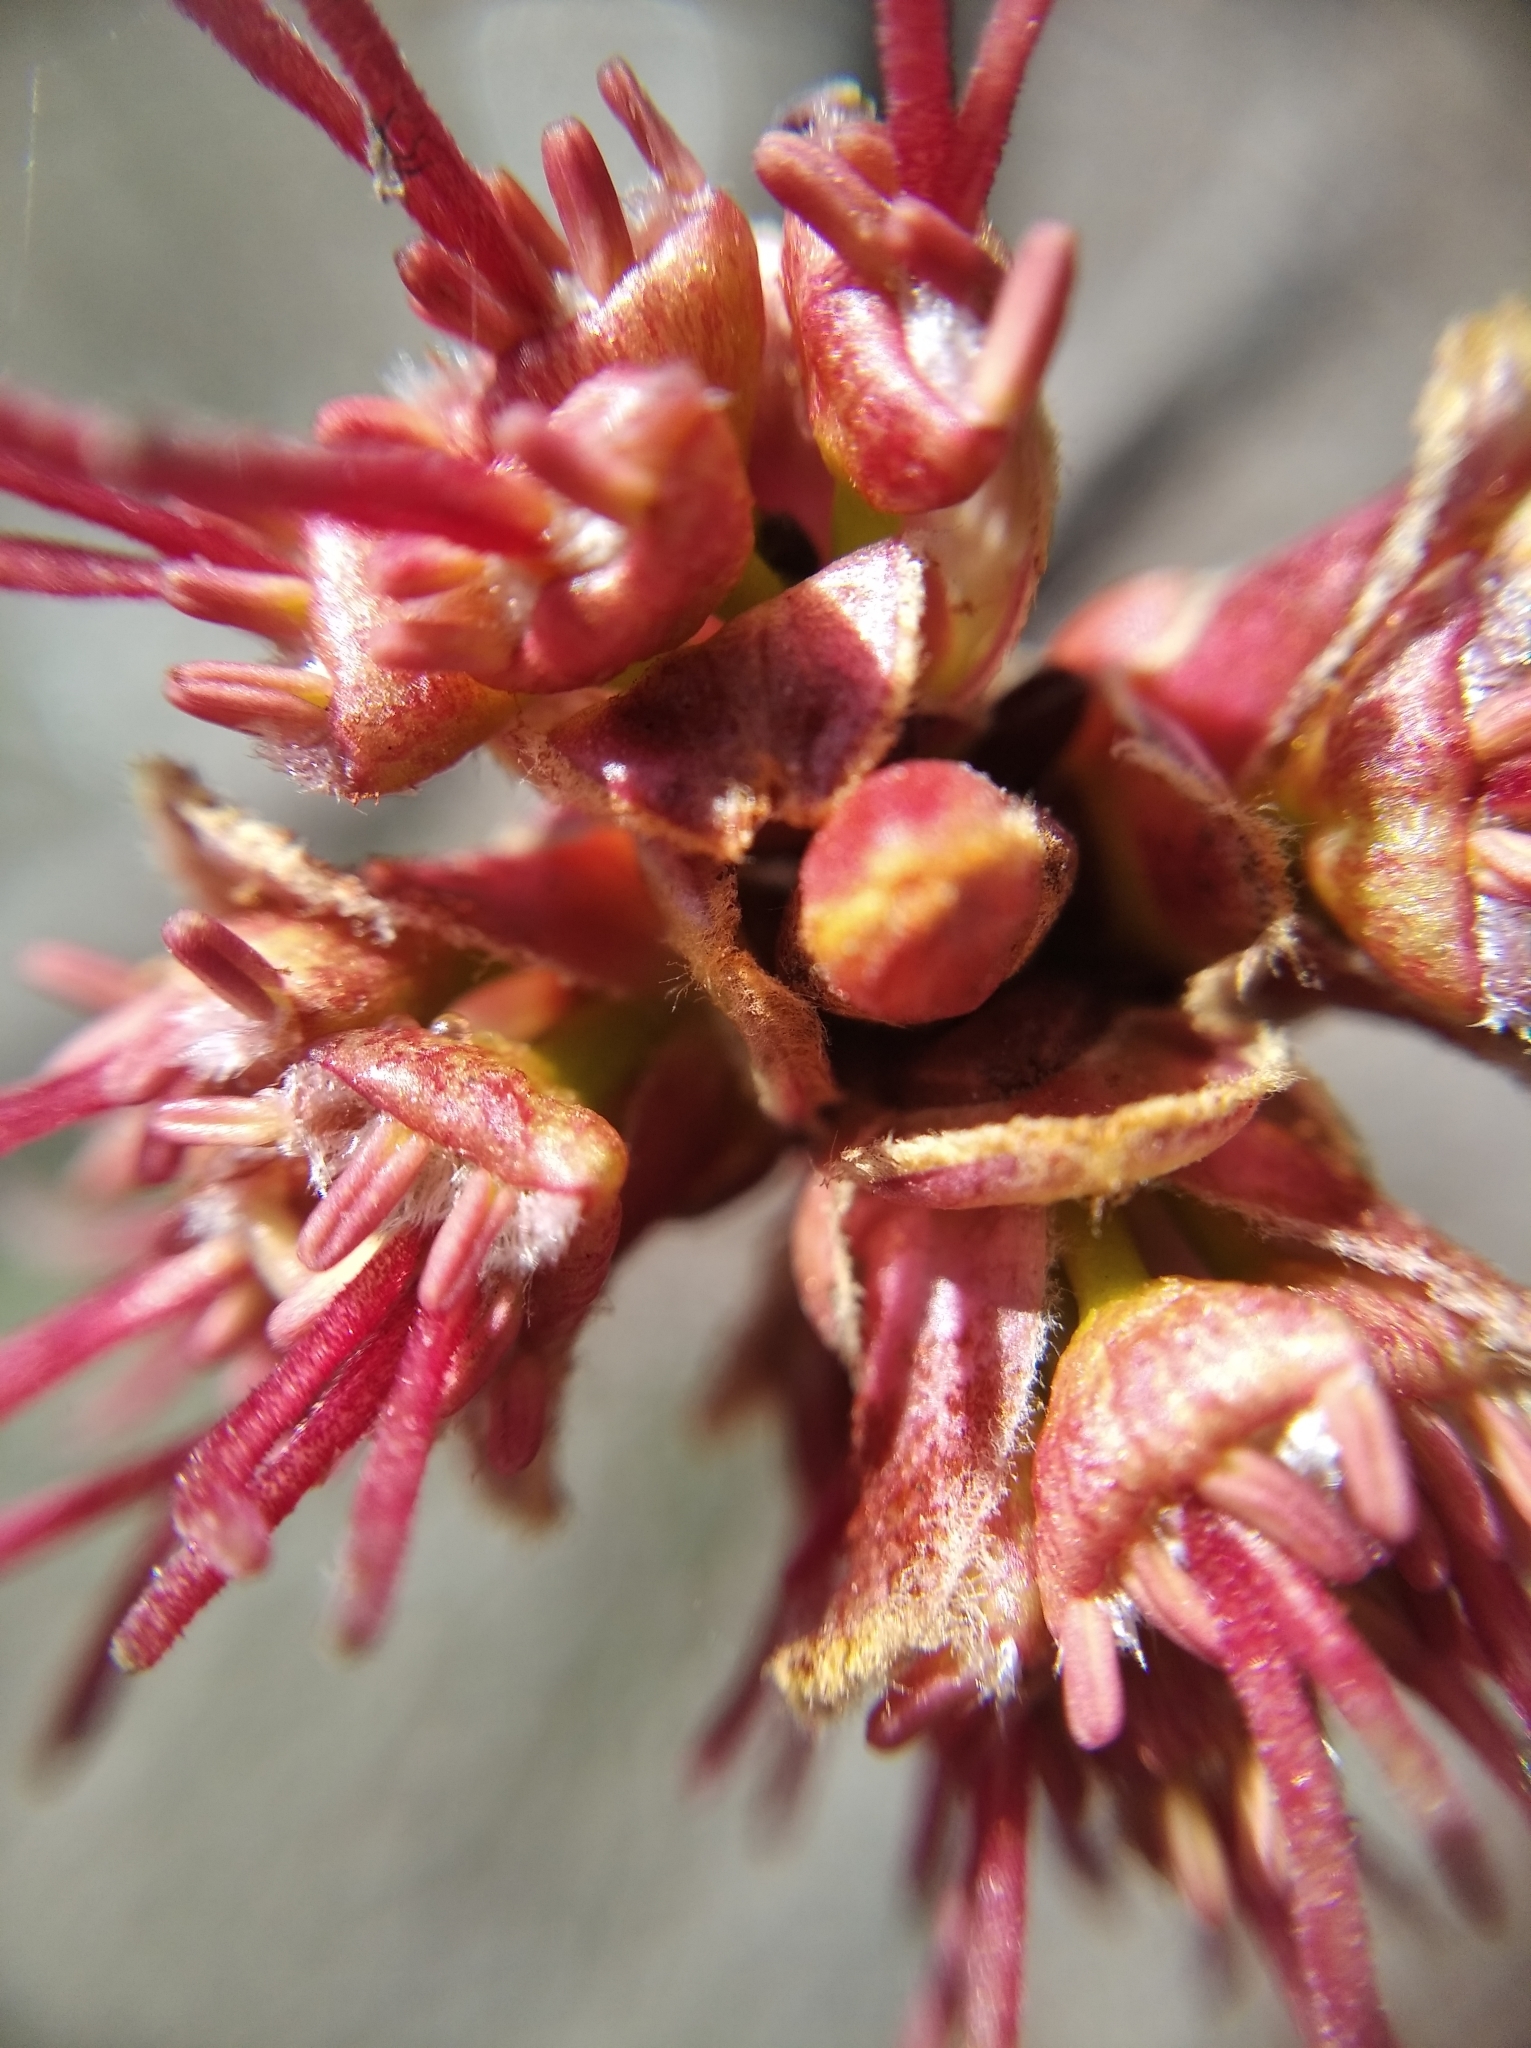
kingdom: Plantae
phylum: Tracheophyta
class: Magnoliopsida
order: Sapindales
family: Sapindaceae
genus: Acer
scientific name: Acer saccharinum
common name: Silver maple
